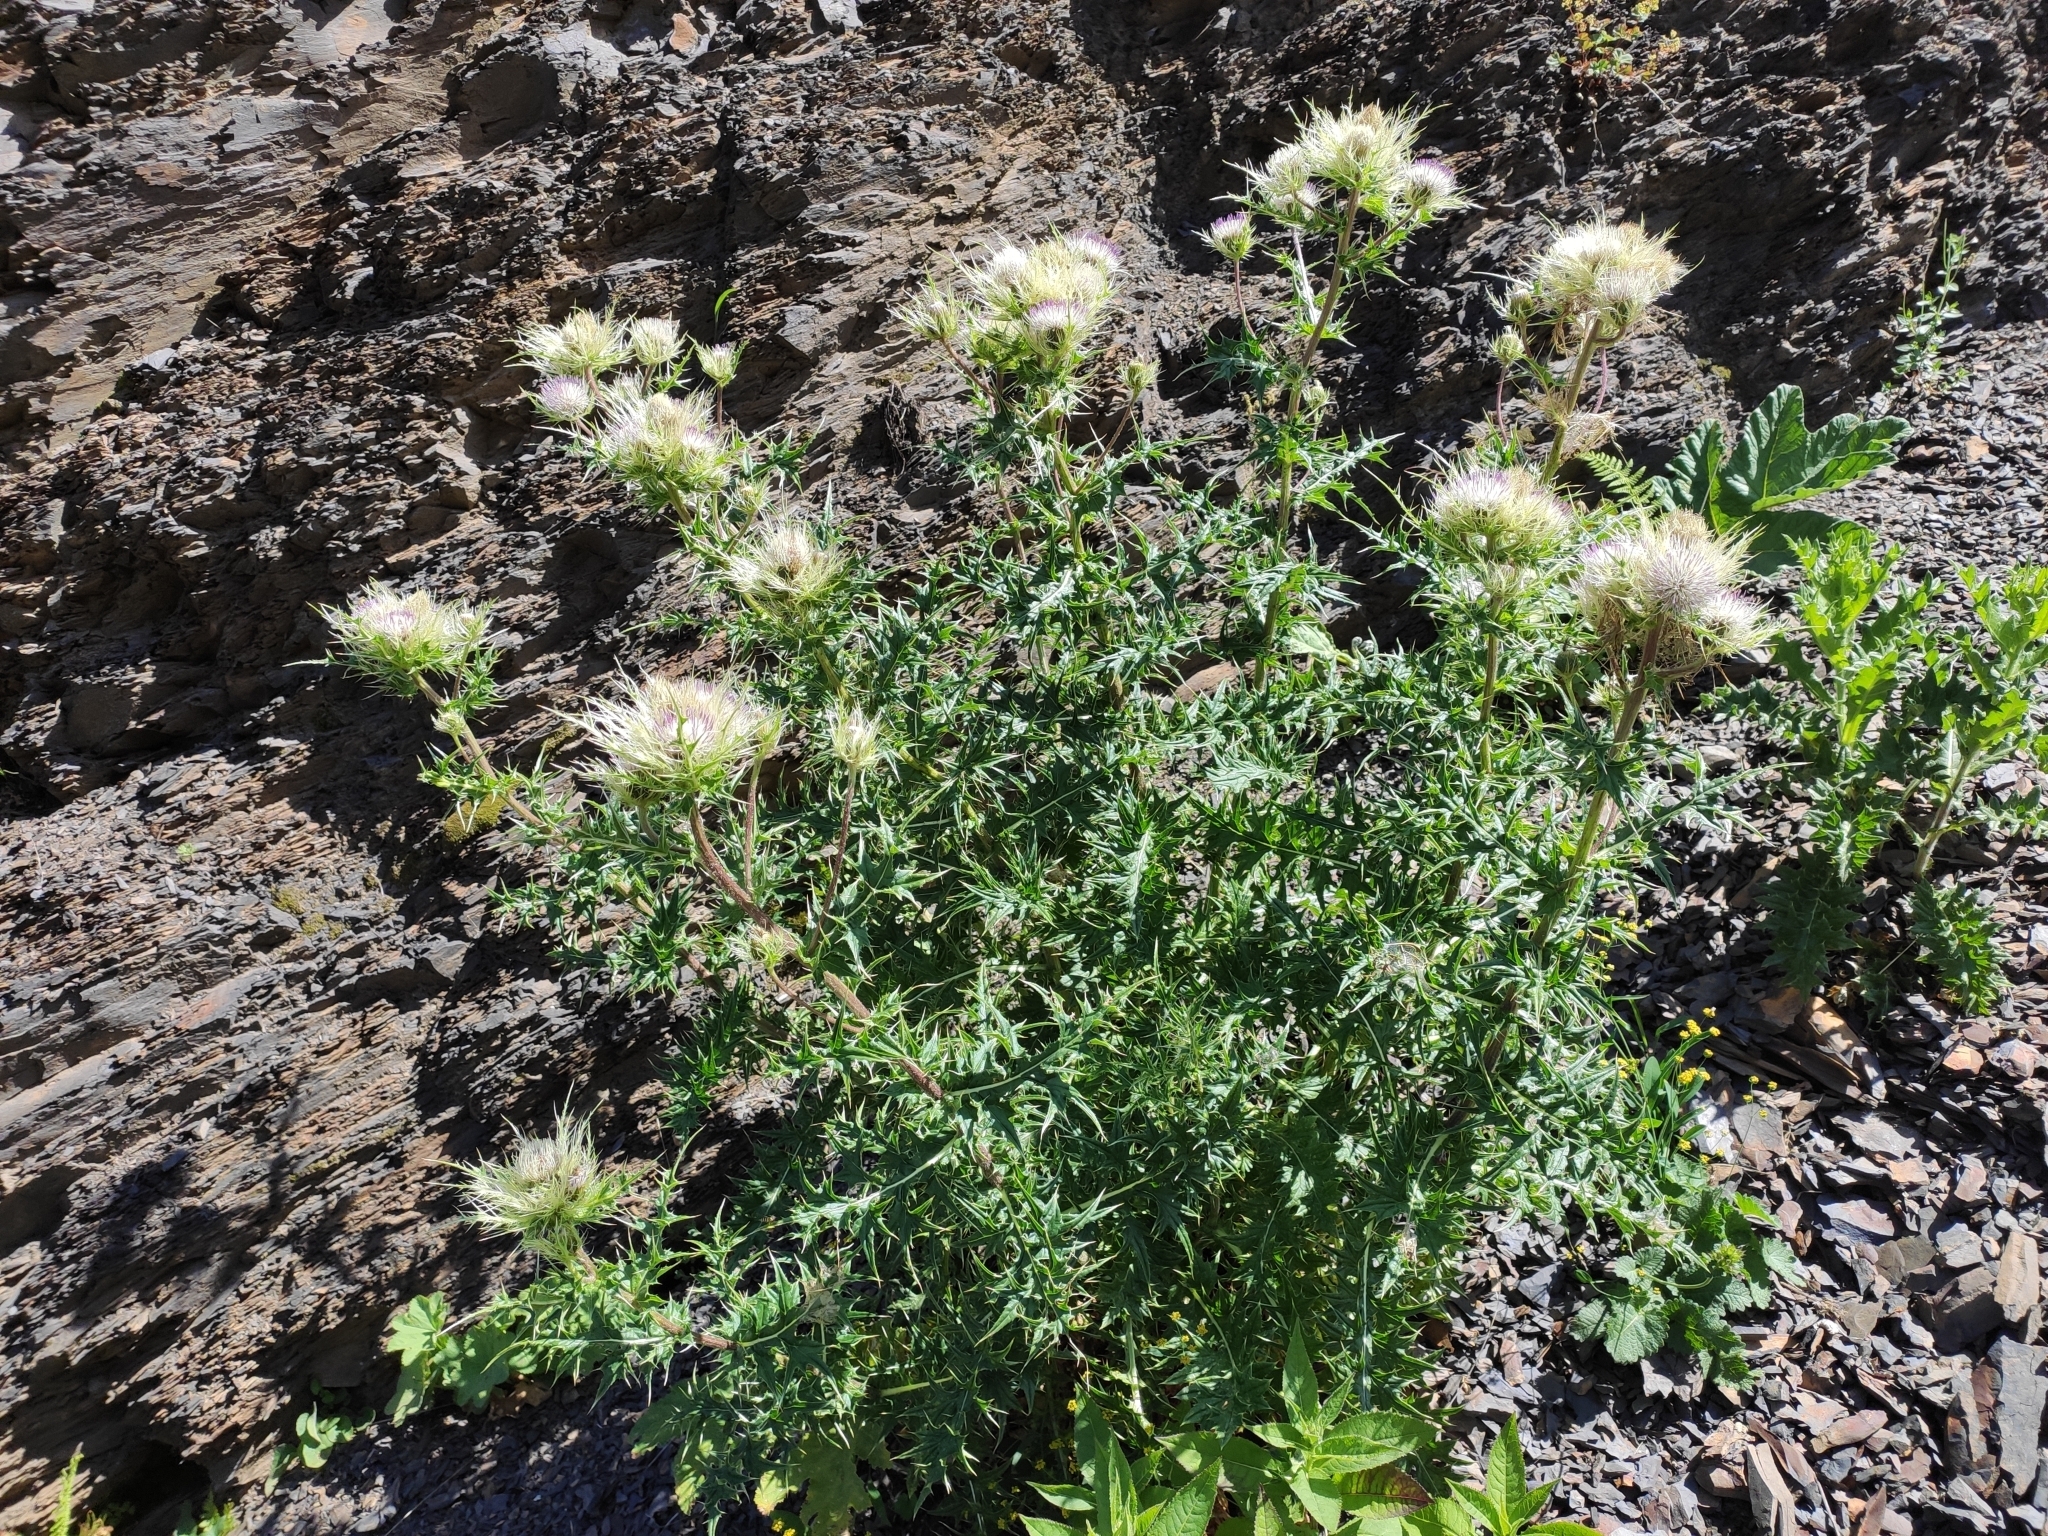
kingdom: Plantae
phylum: Tracheophyta
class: Magnoliopsida
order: Asterales
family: Asteraceae
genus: Cirsium
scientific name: Cirsium obvallatum
